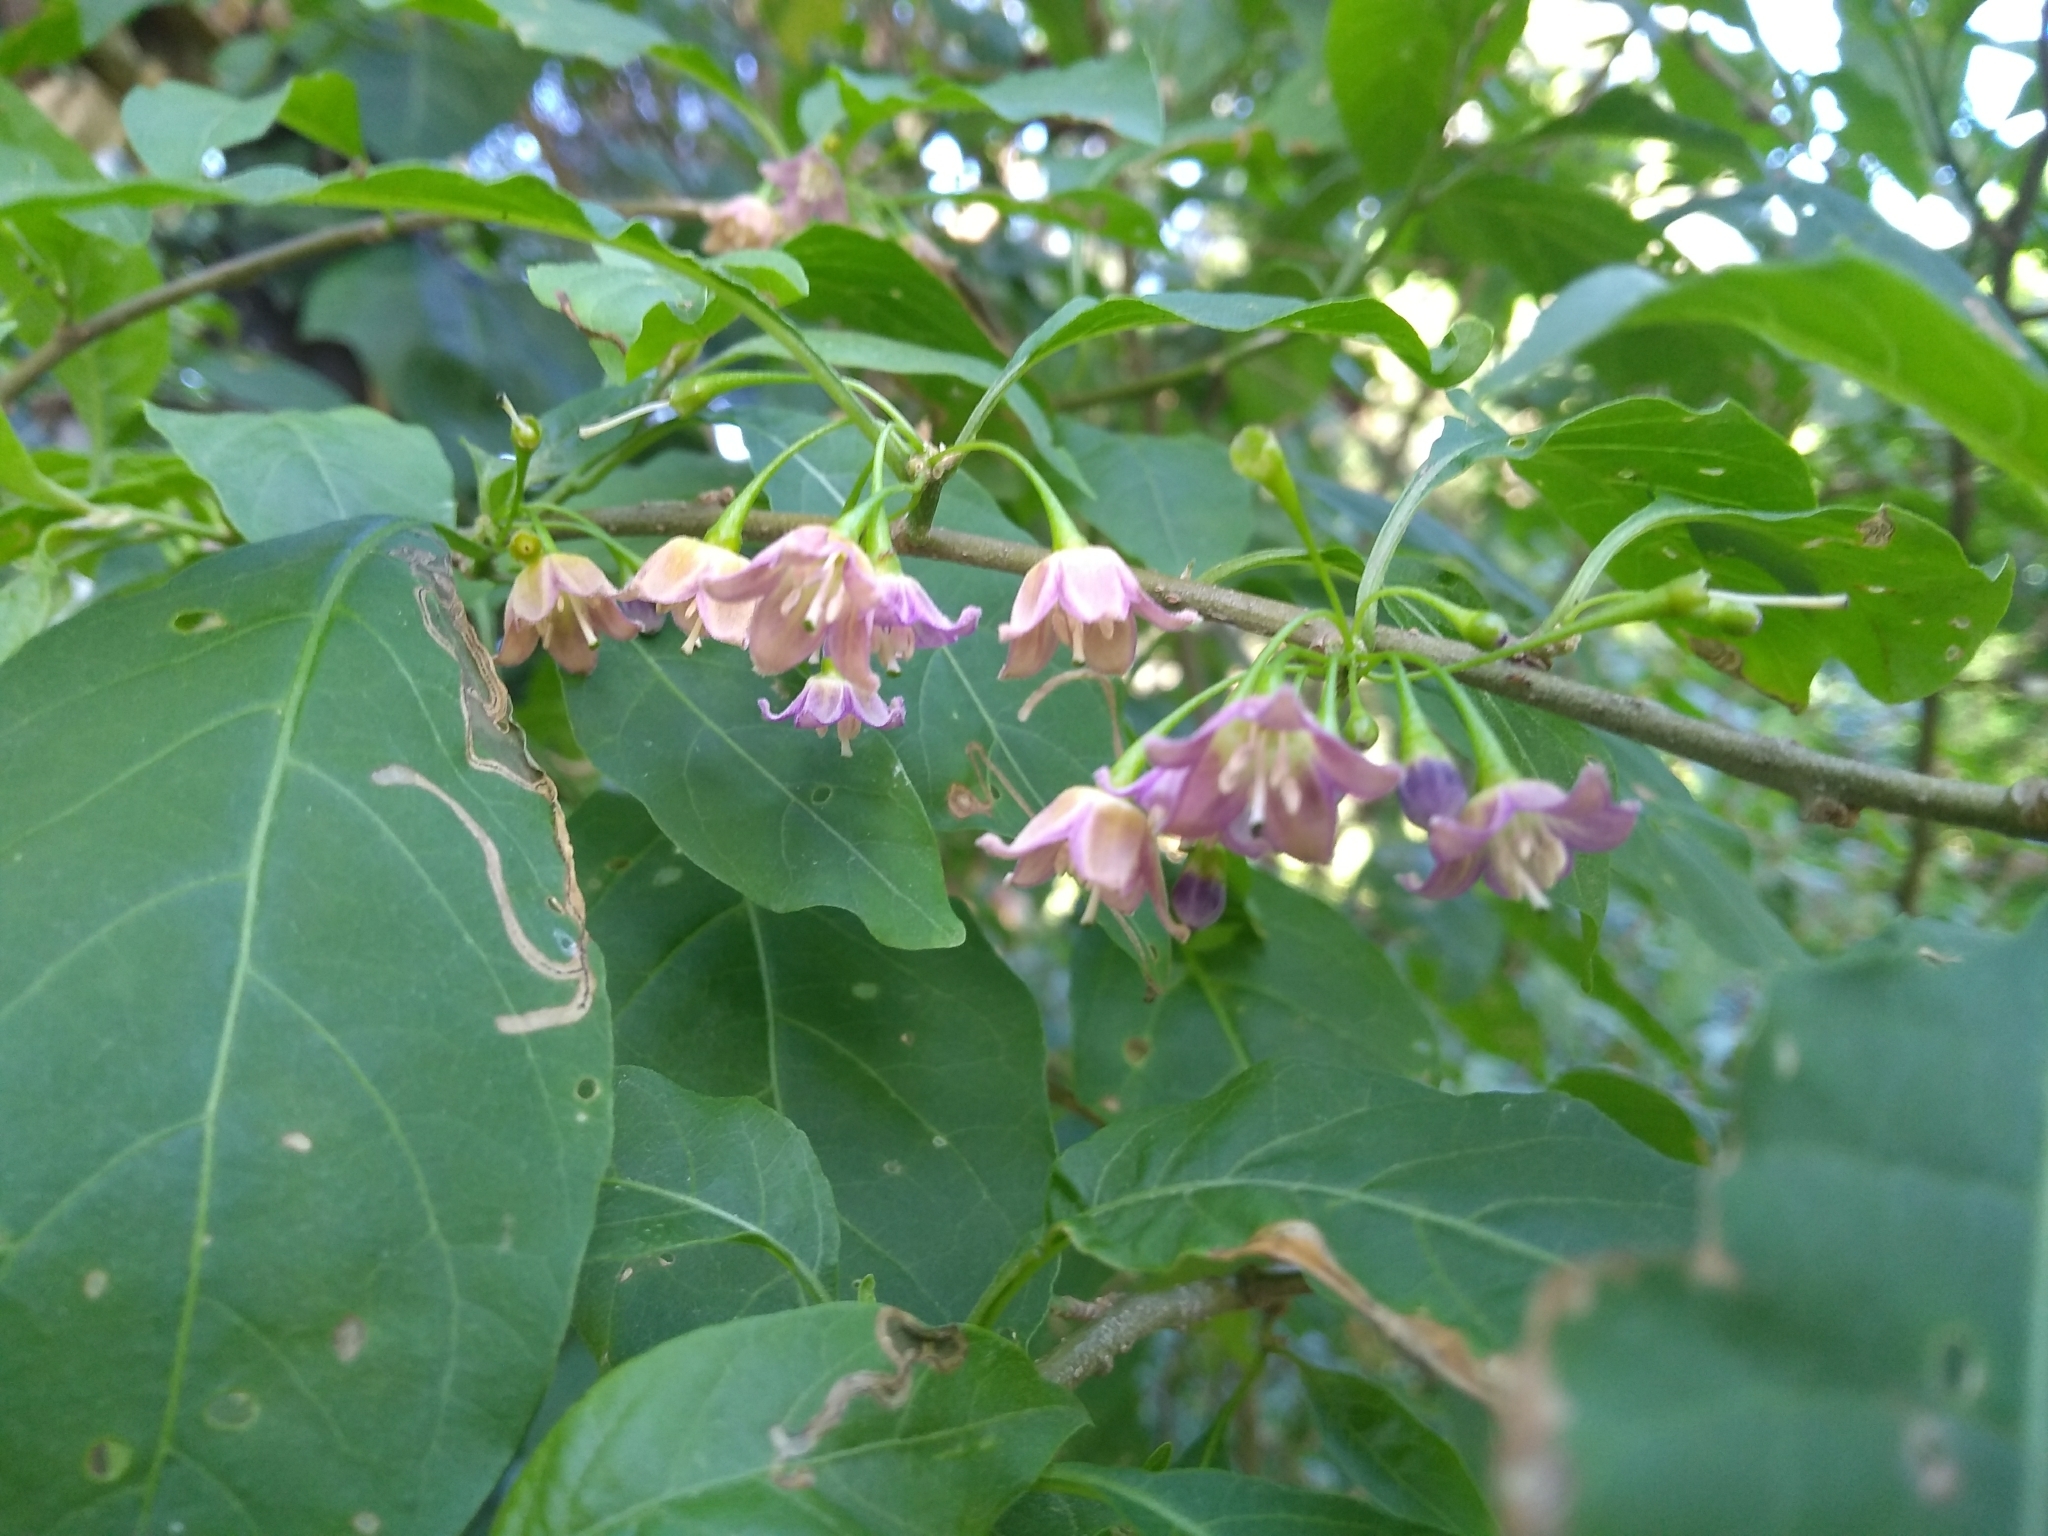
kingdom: Plantae
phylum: Tracheophyta
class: Magnoliopsida
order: Solanales
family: Solanaceae
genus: Vassobia
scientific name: Vassobia breviflora
